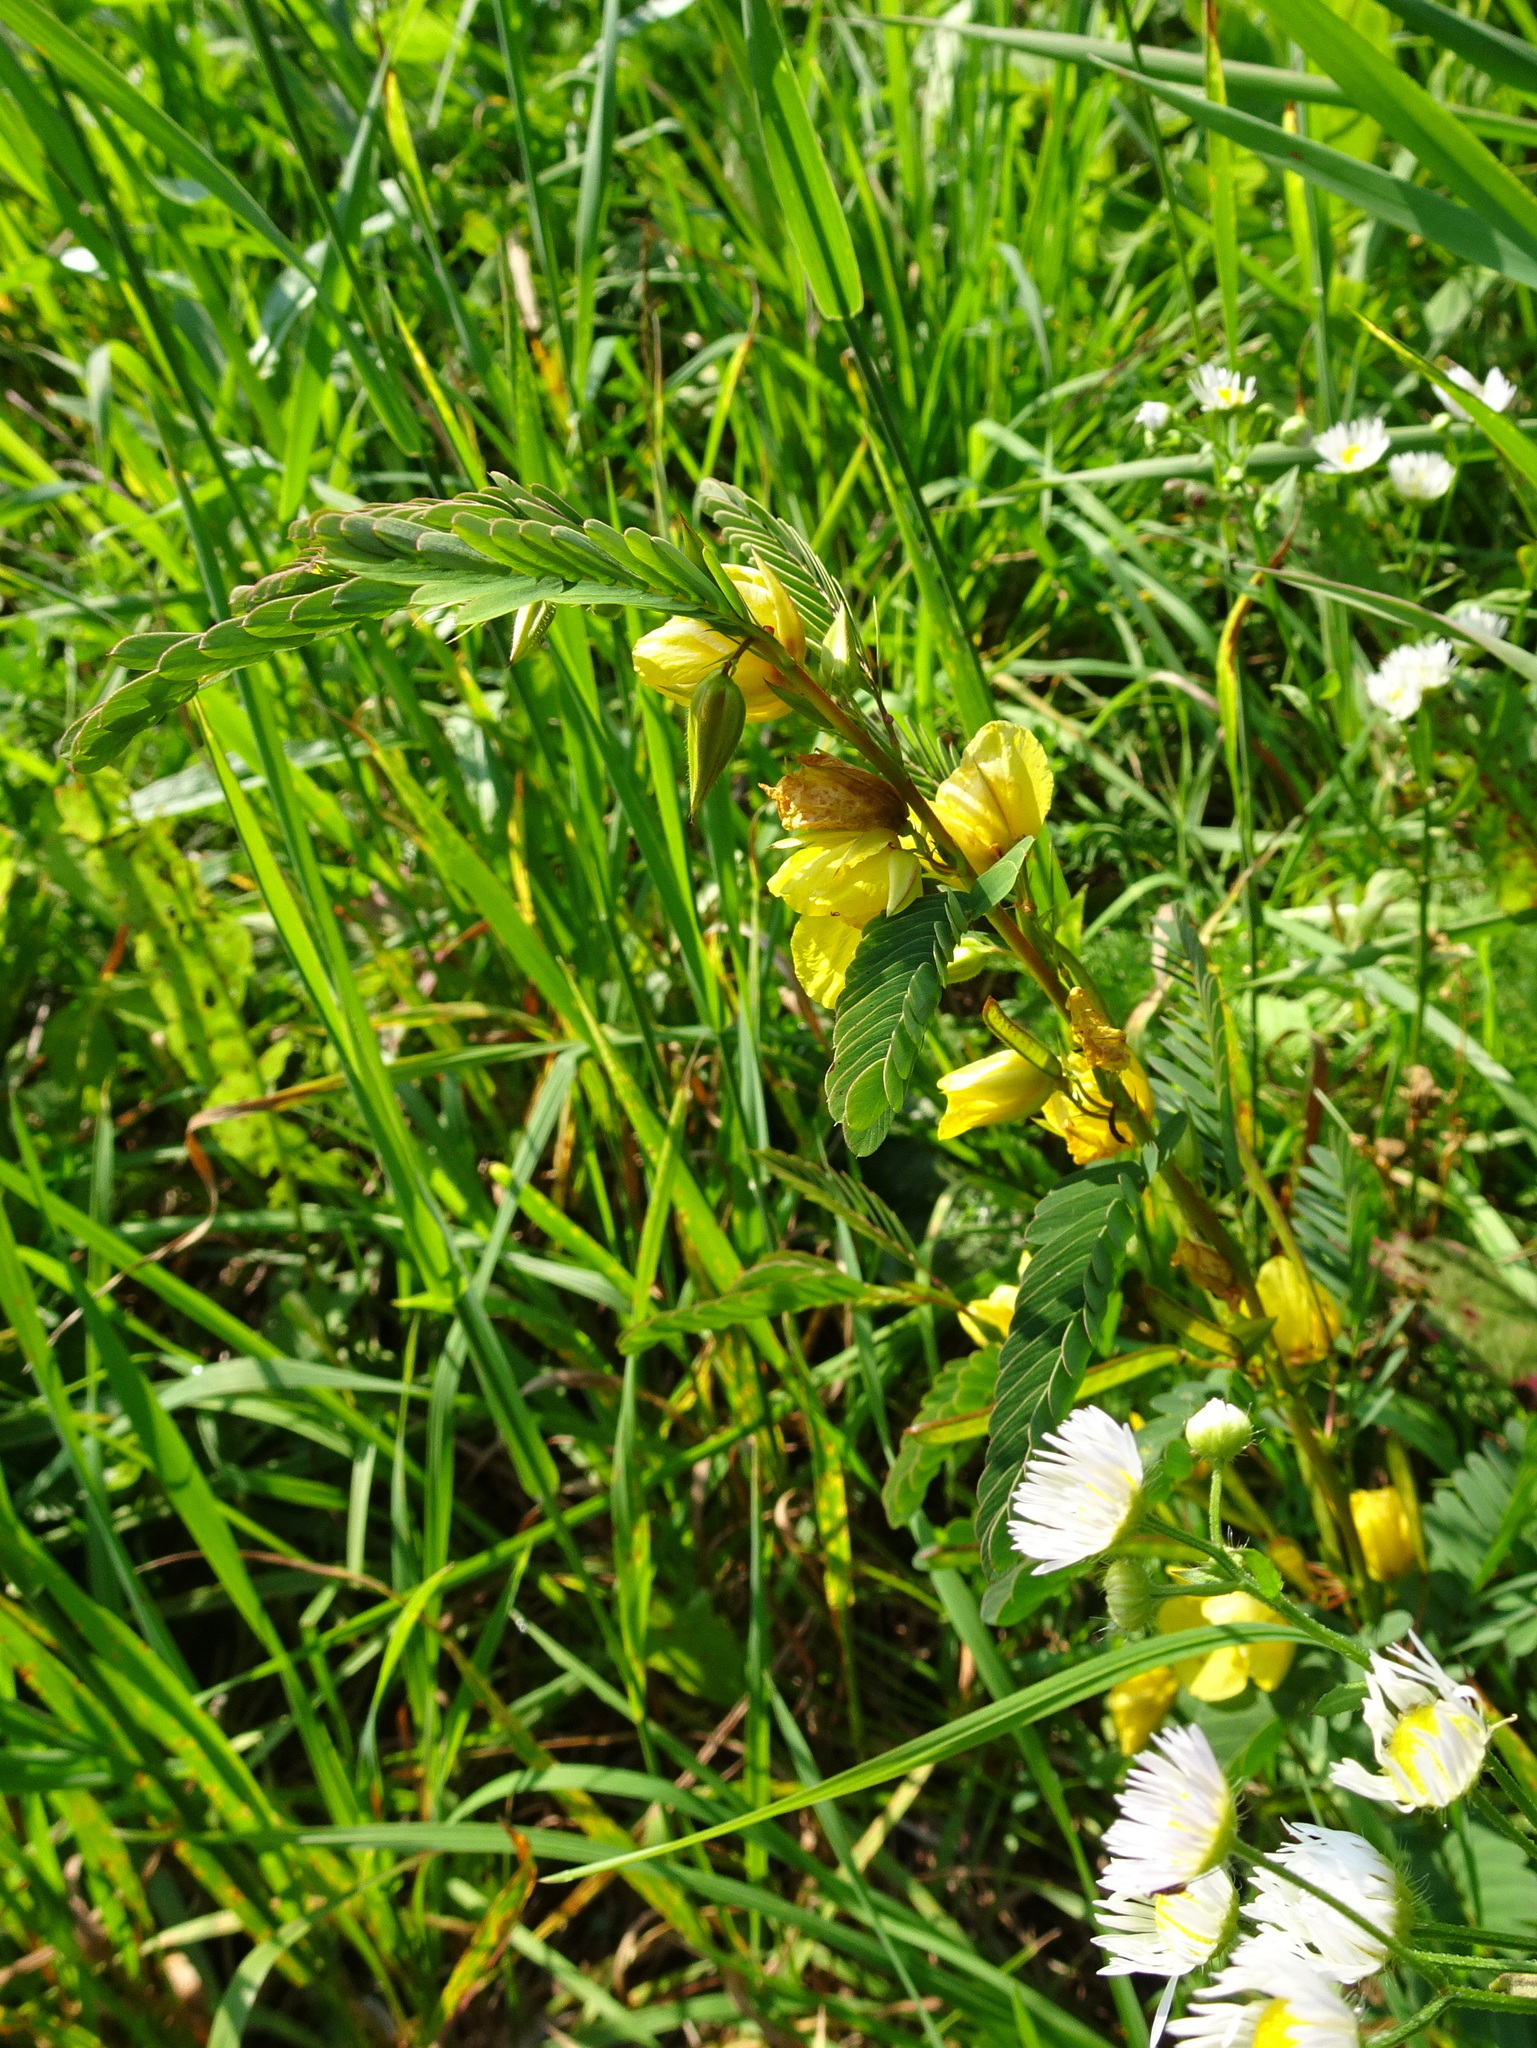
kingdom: Plantae
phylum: Tracheophyta
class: Magnoliopsida
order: Fabales
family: Fabaceae
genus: Chamaecrista
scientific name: Chamaecrista fasciculata
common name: Golden cassia
